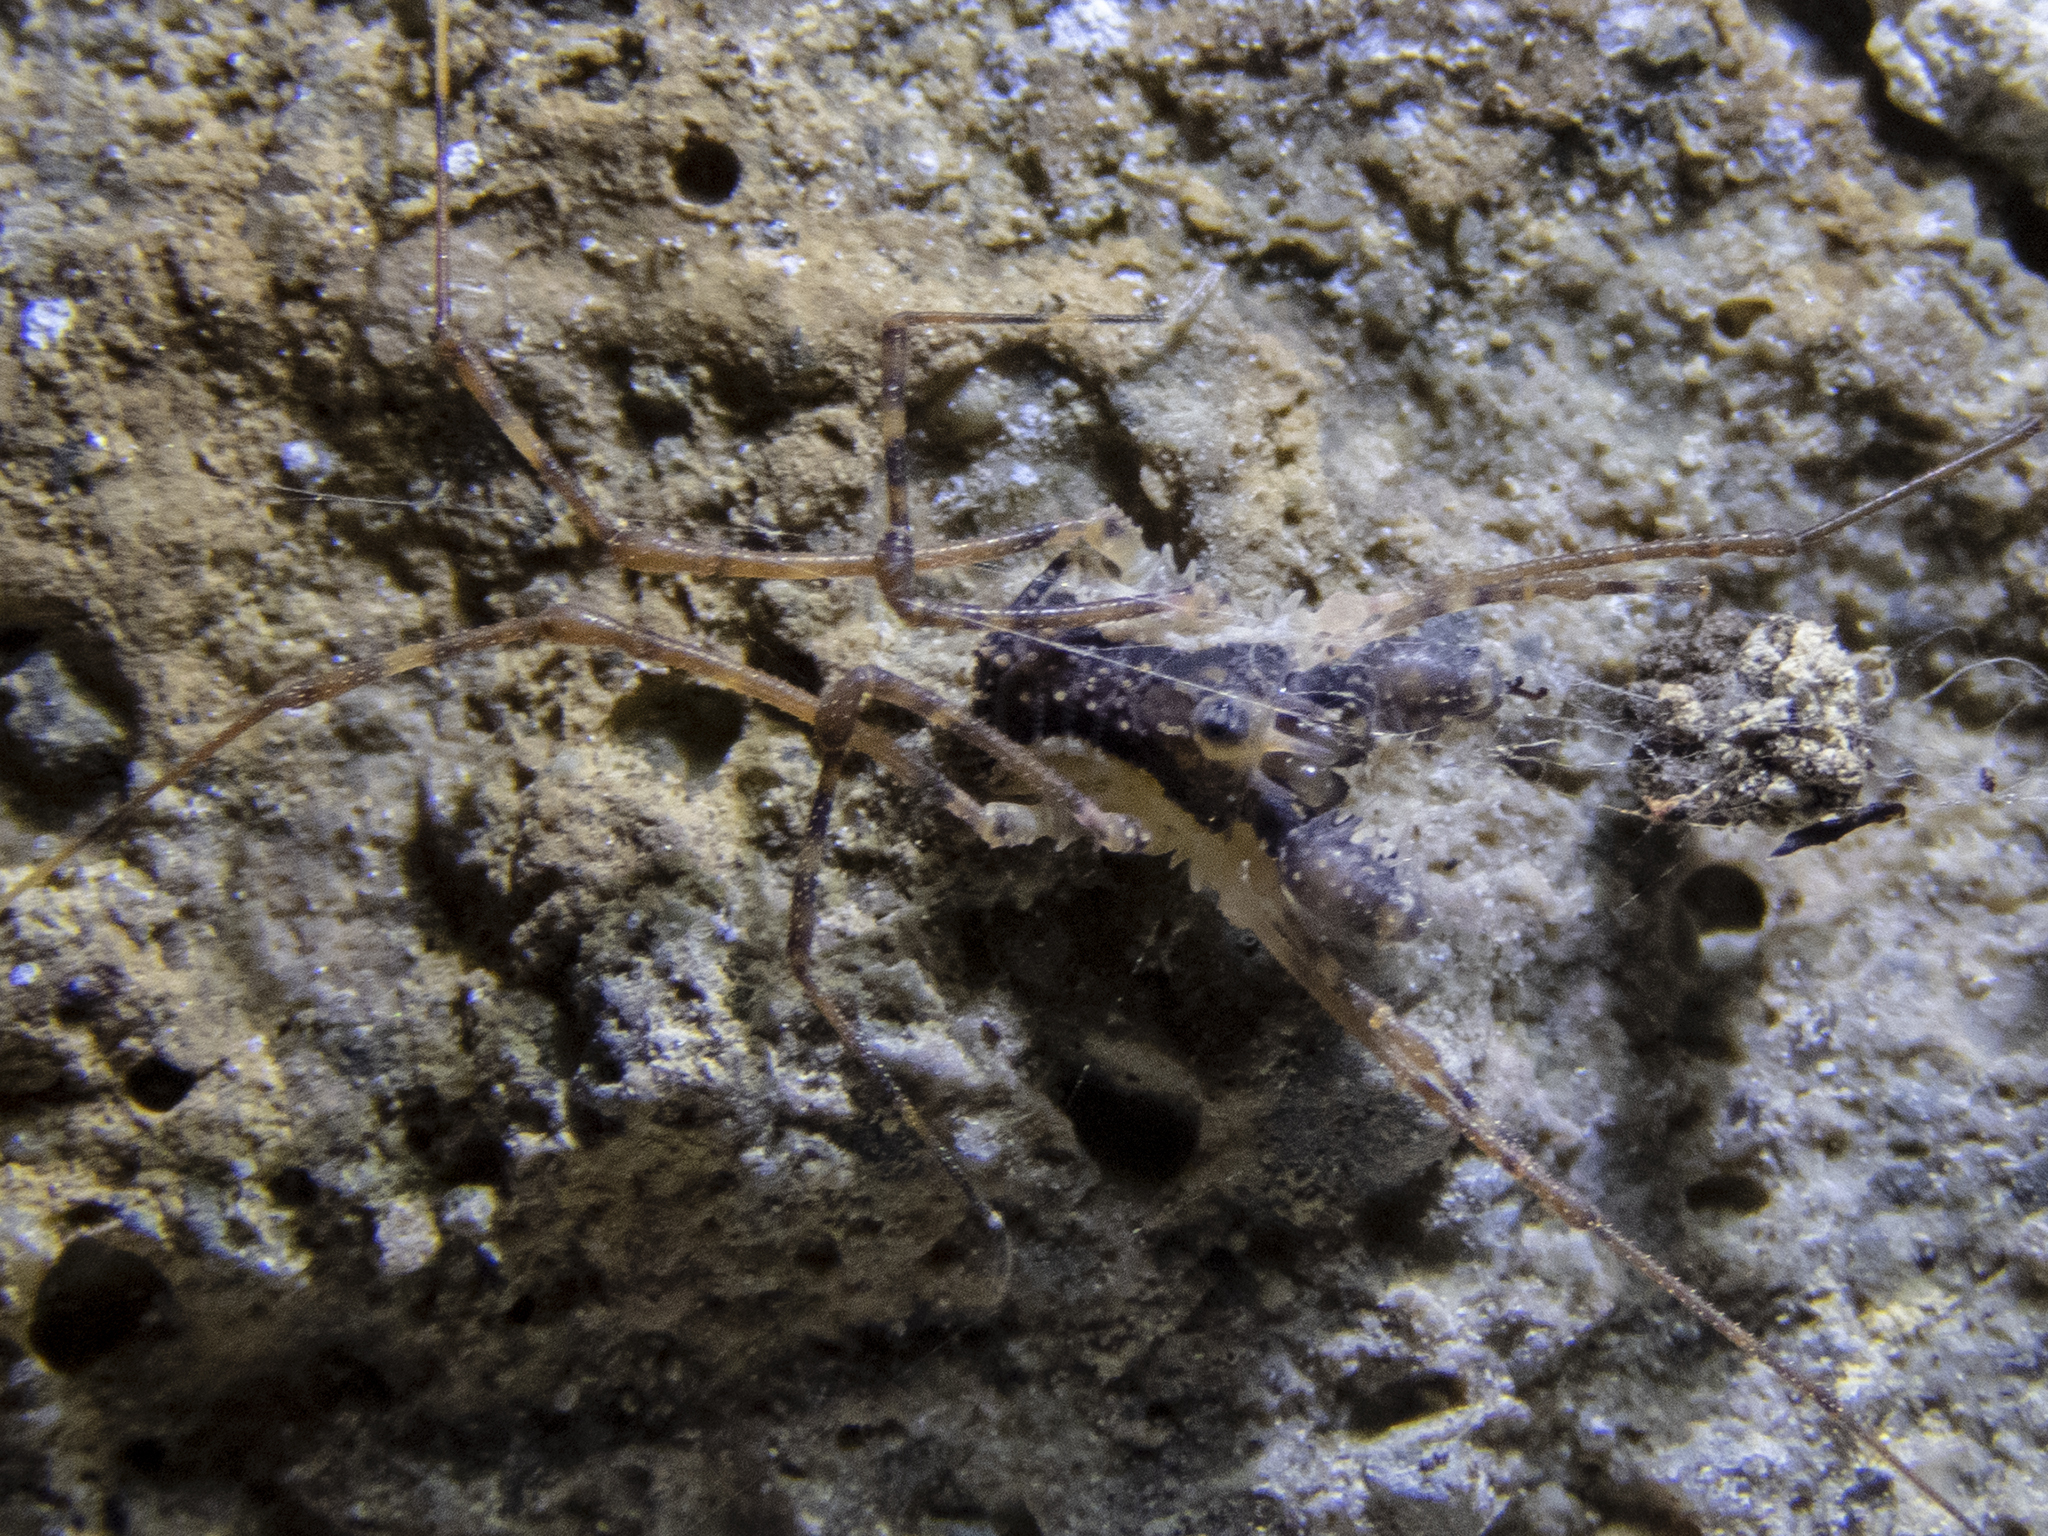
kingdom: Animalia
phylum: Arthropoda
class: Arachnida
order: Opiliones
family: Triaenonychidae
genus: Algidia
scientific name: Algidia interrupta
